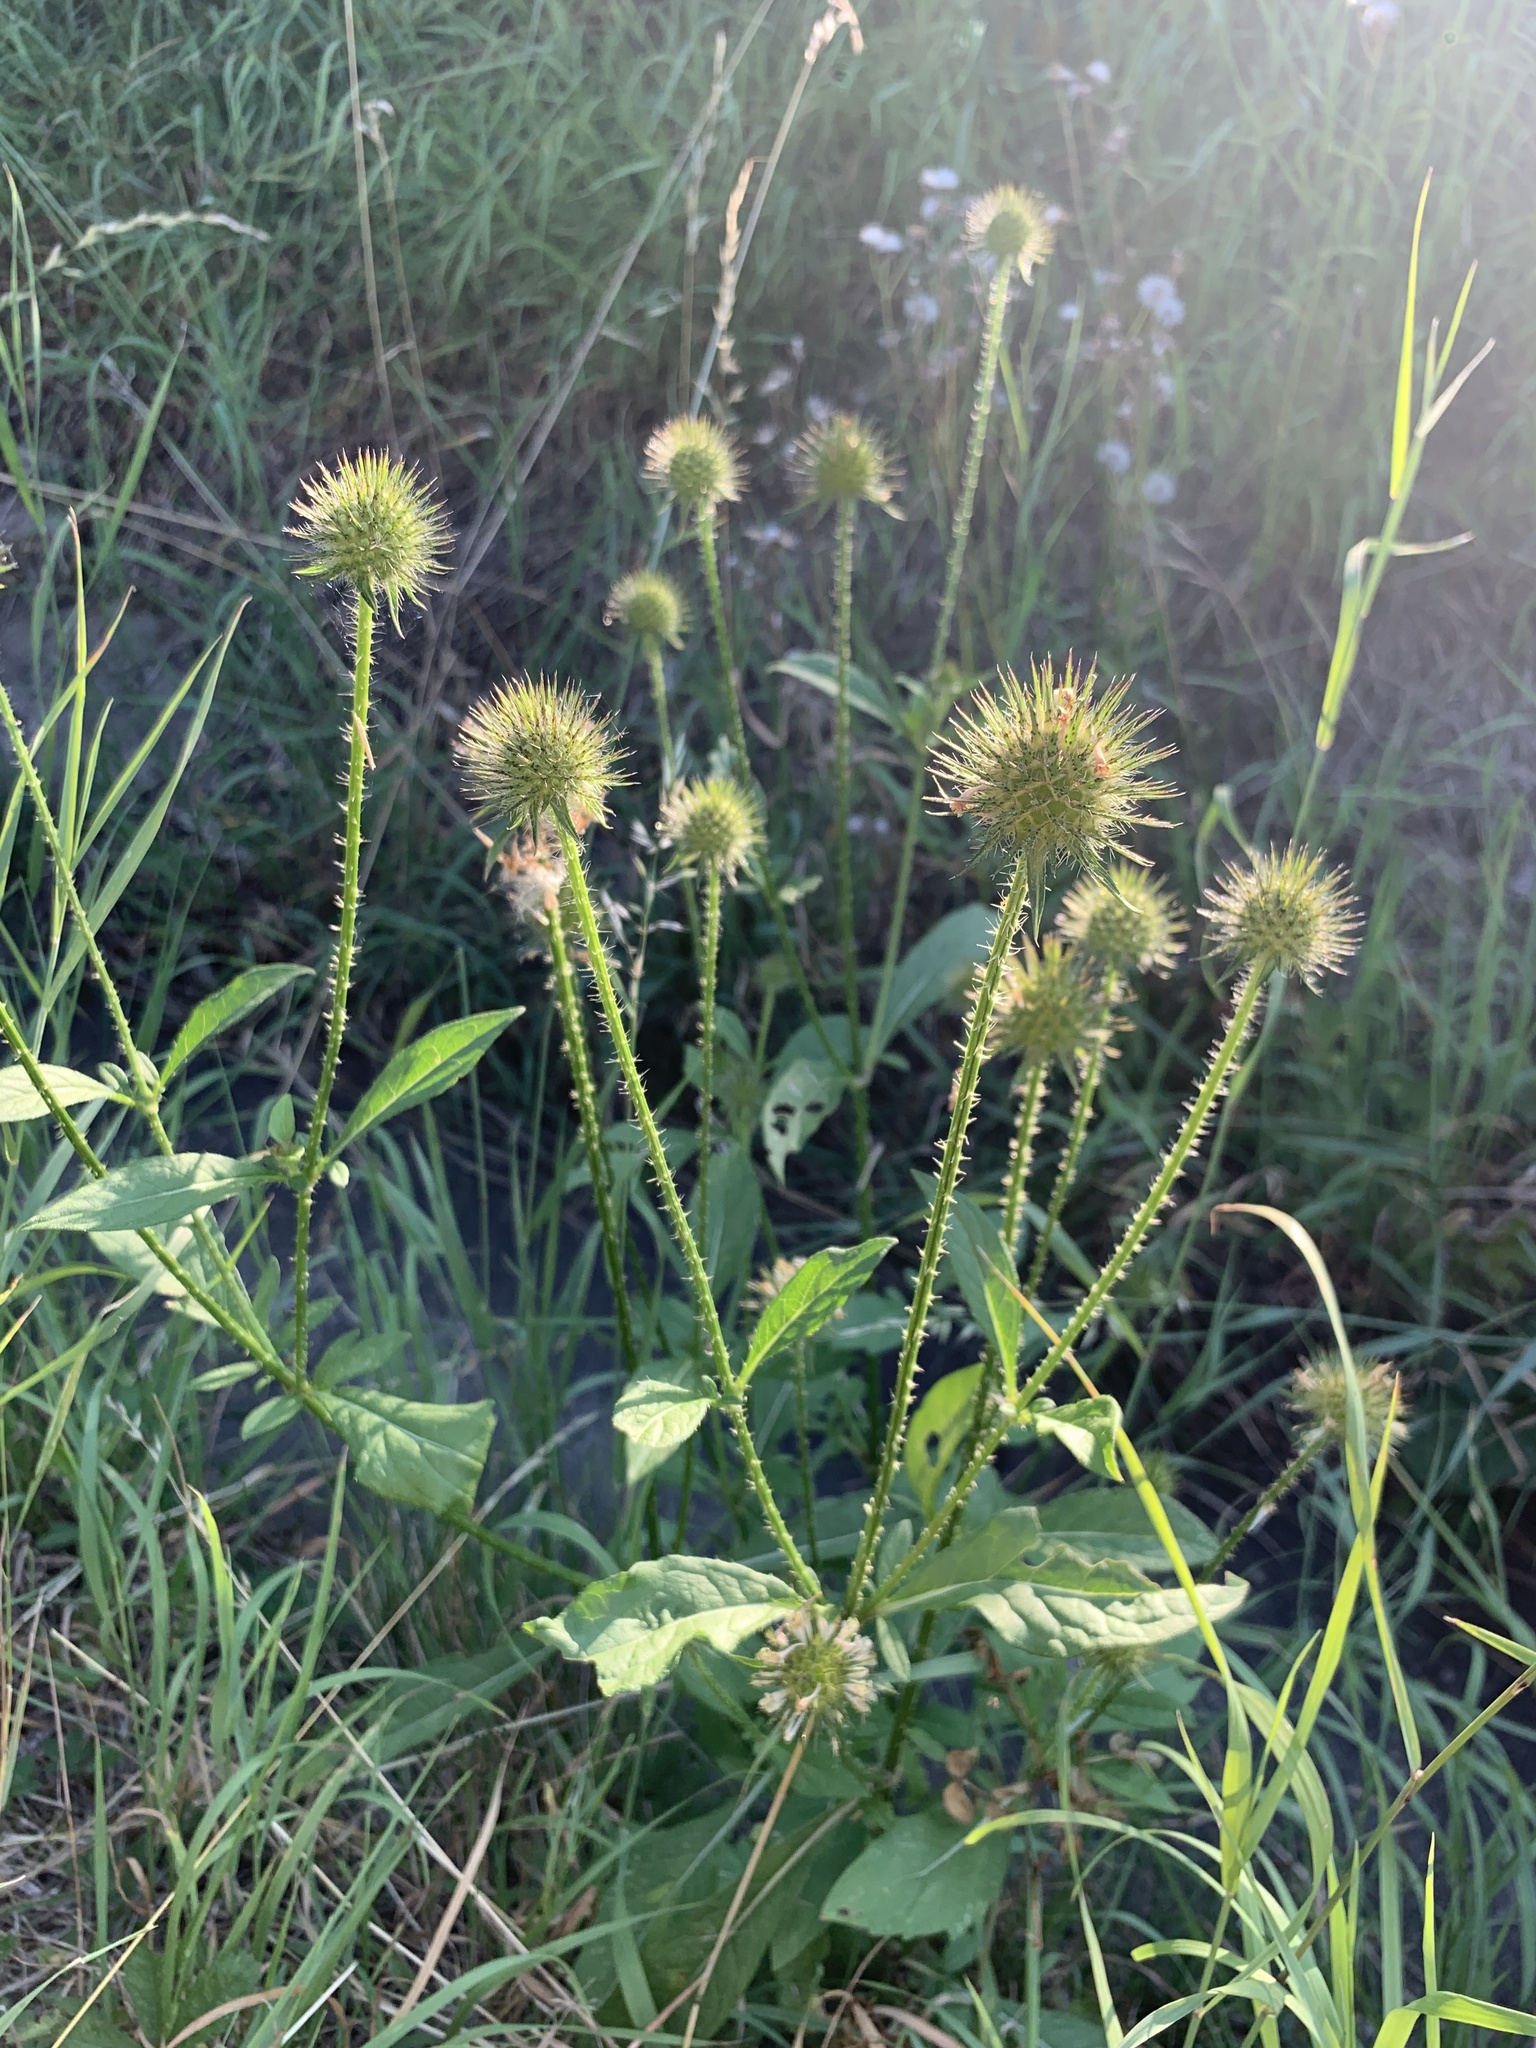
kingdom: Plantae
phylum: Tracheophyta
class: Magnoliopsida
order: Dipsacales
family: Caprifoliaceae
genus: Dipsacus
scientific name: Dipsacus strigosus
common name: Yellow-flowered teasel
